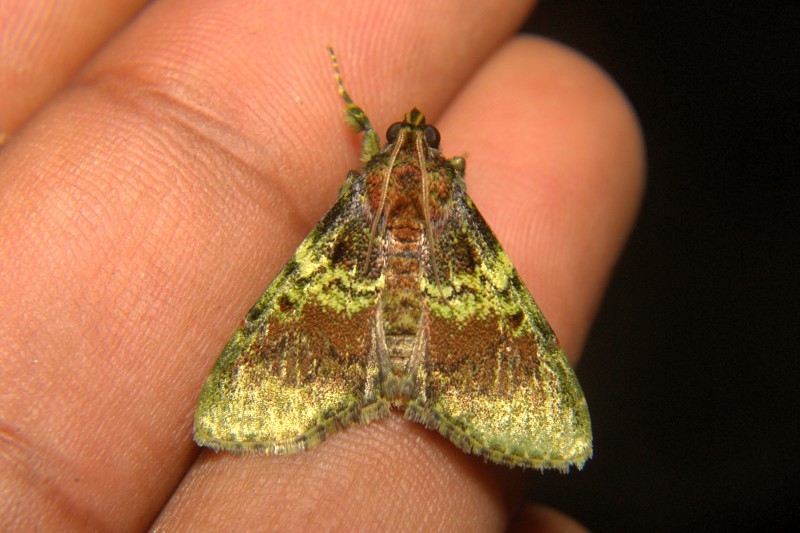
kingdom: Animalia
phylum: Arthropoda
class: Insecta
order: Lepidoptera
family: Pyralidae
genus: Locastra
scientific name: Locastra viridis
